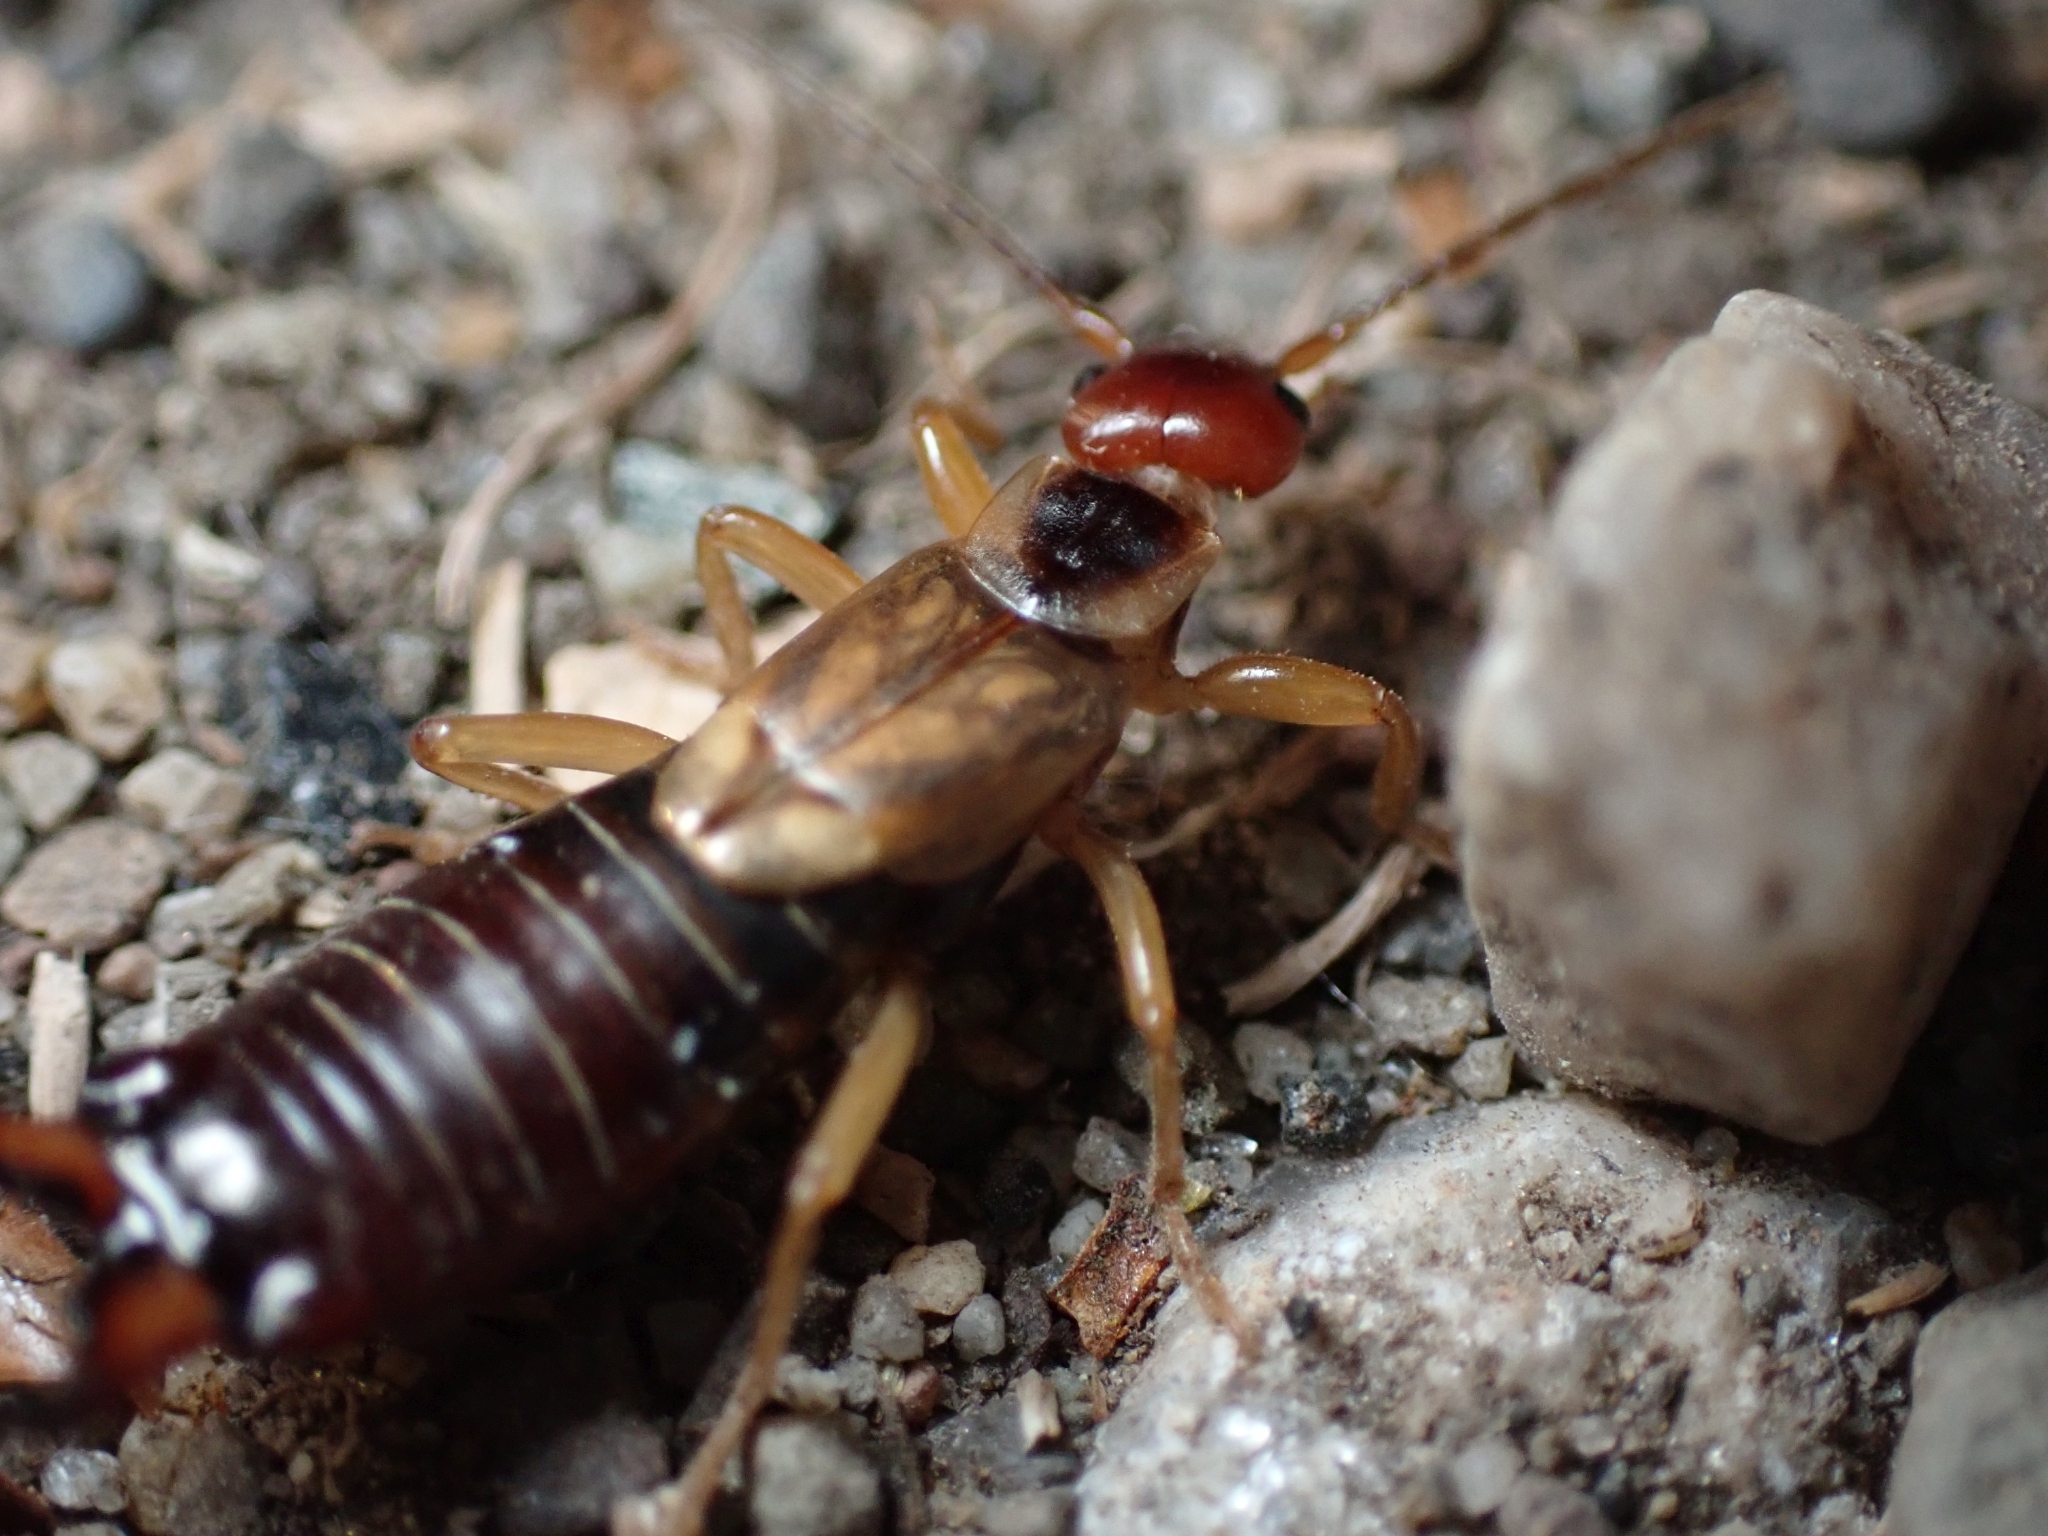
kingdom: Animalia
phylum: Arthropoda
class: Insecta
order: Dermaptera
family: Forficulidae
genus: Forficula
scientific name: Forficula
